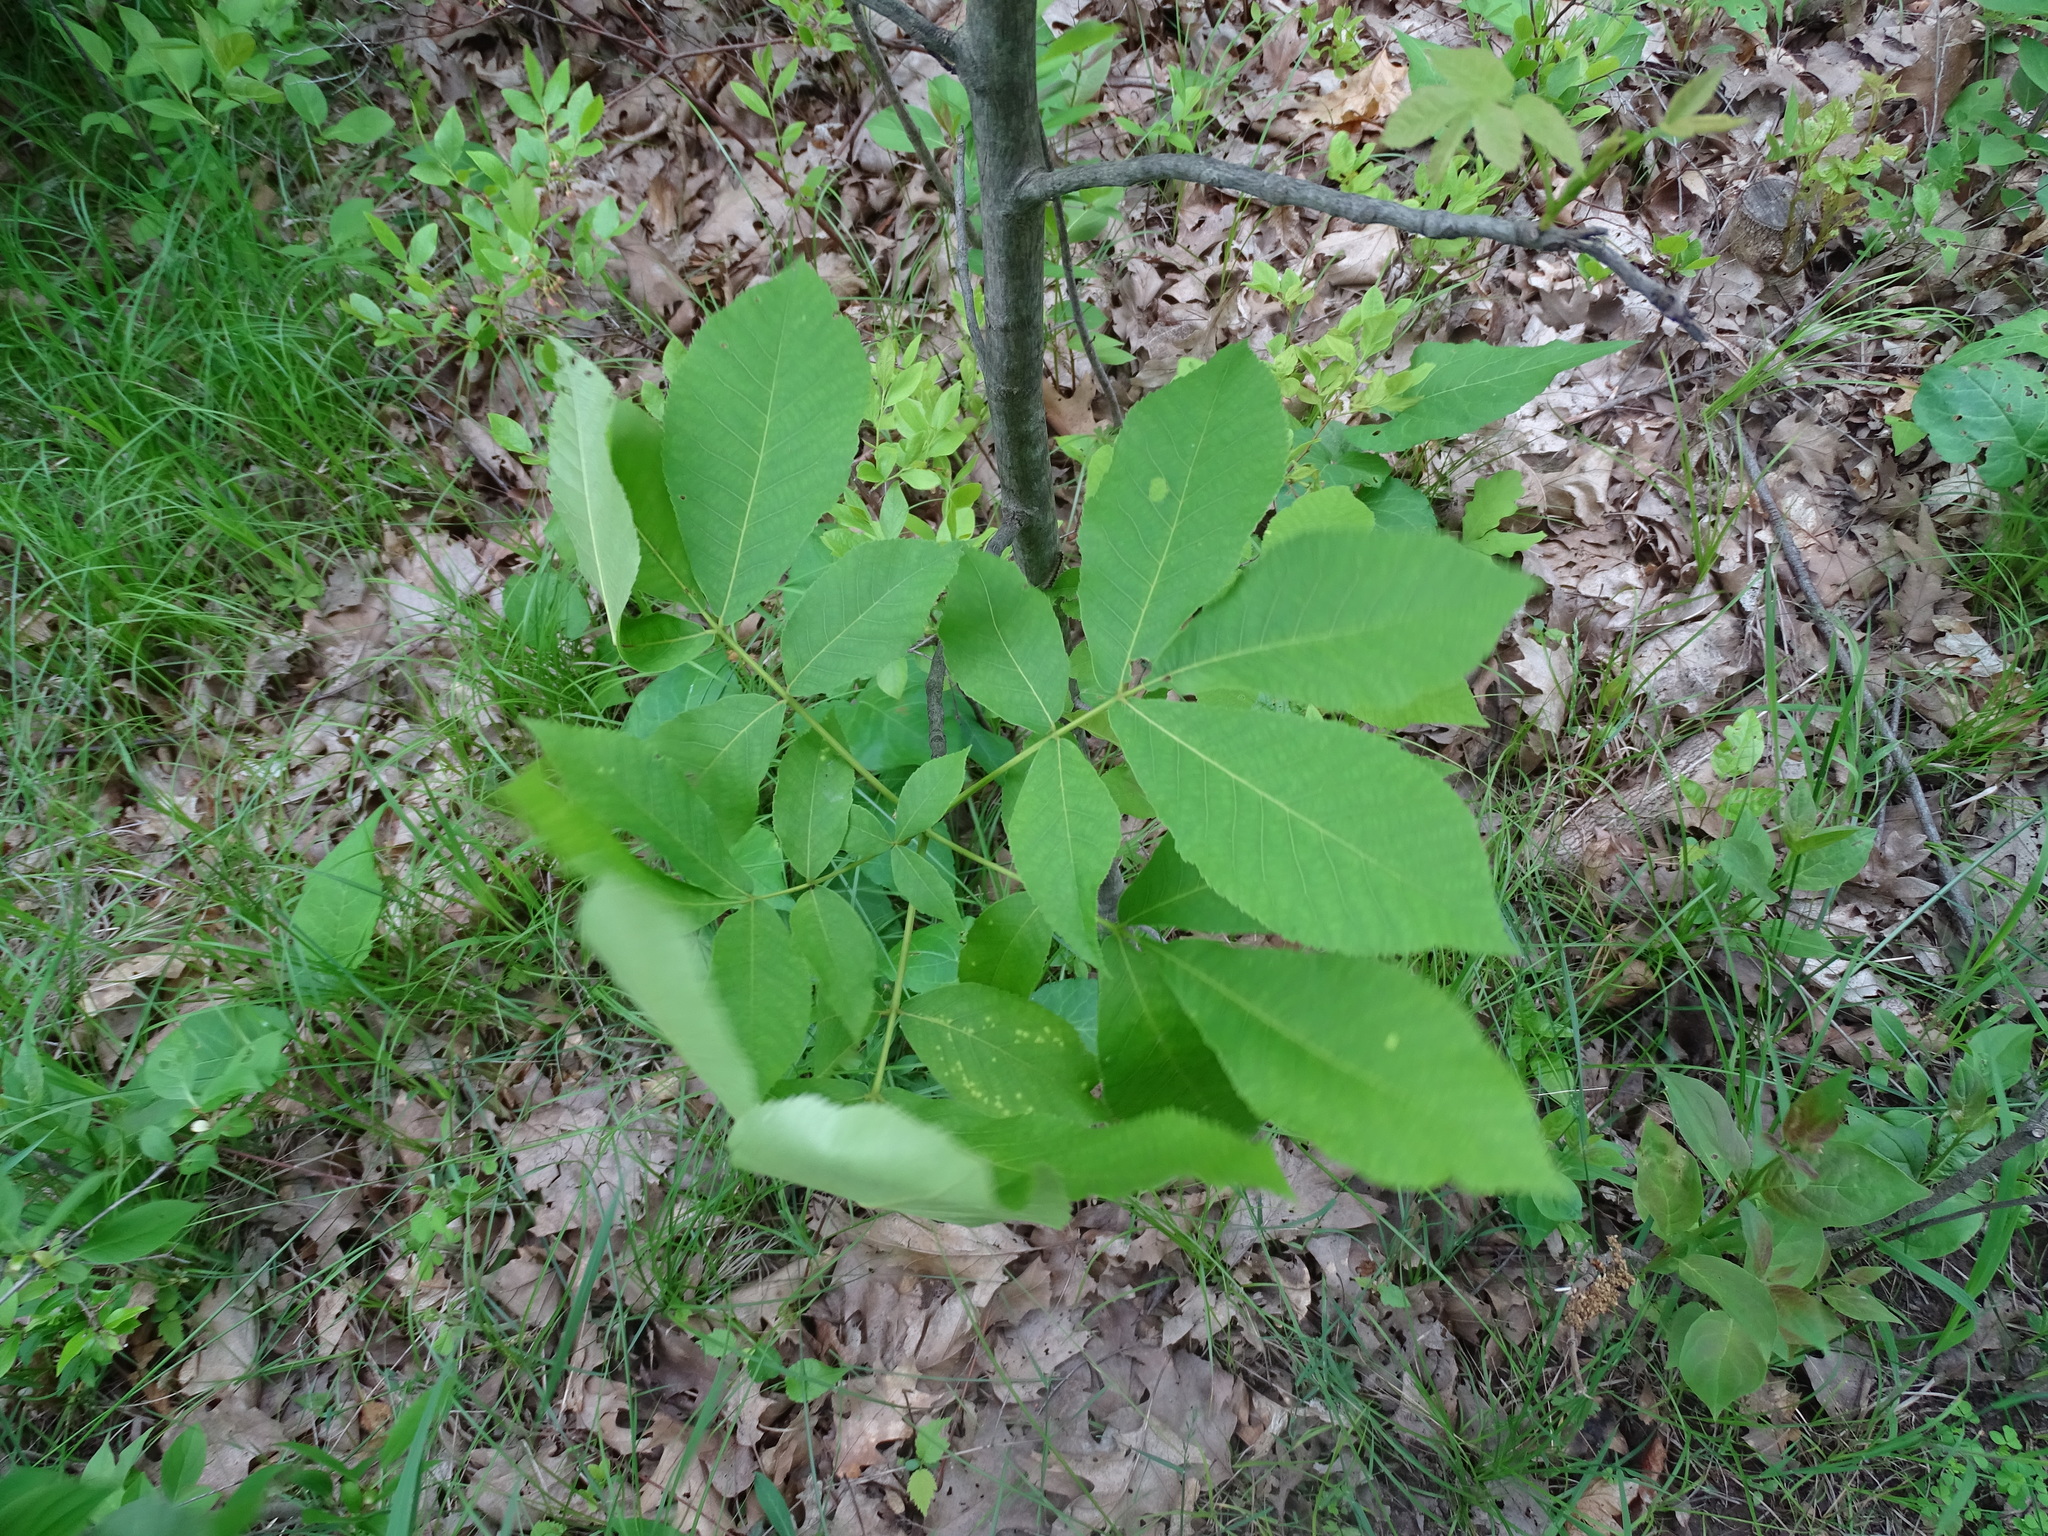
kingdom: Plantae
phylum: Tracheophyta
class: Magnoliopsida
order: Fagales
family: Juglandaceae
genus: Carya
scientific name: Carya ovata
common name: Shagbark hickory
